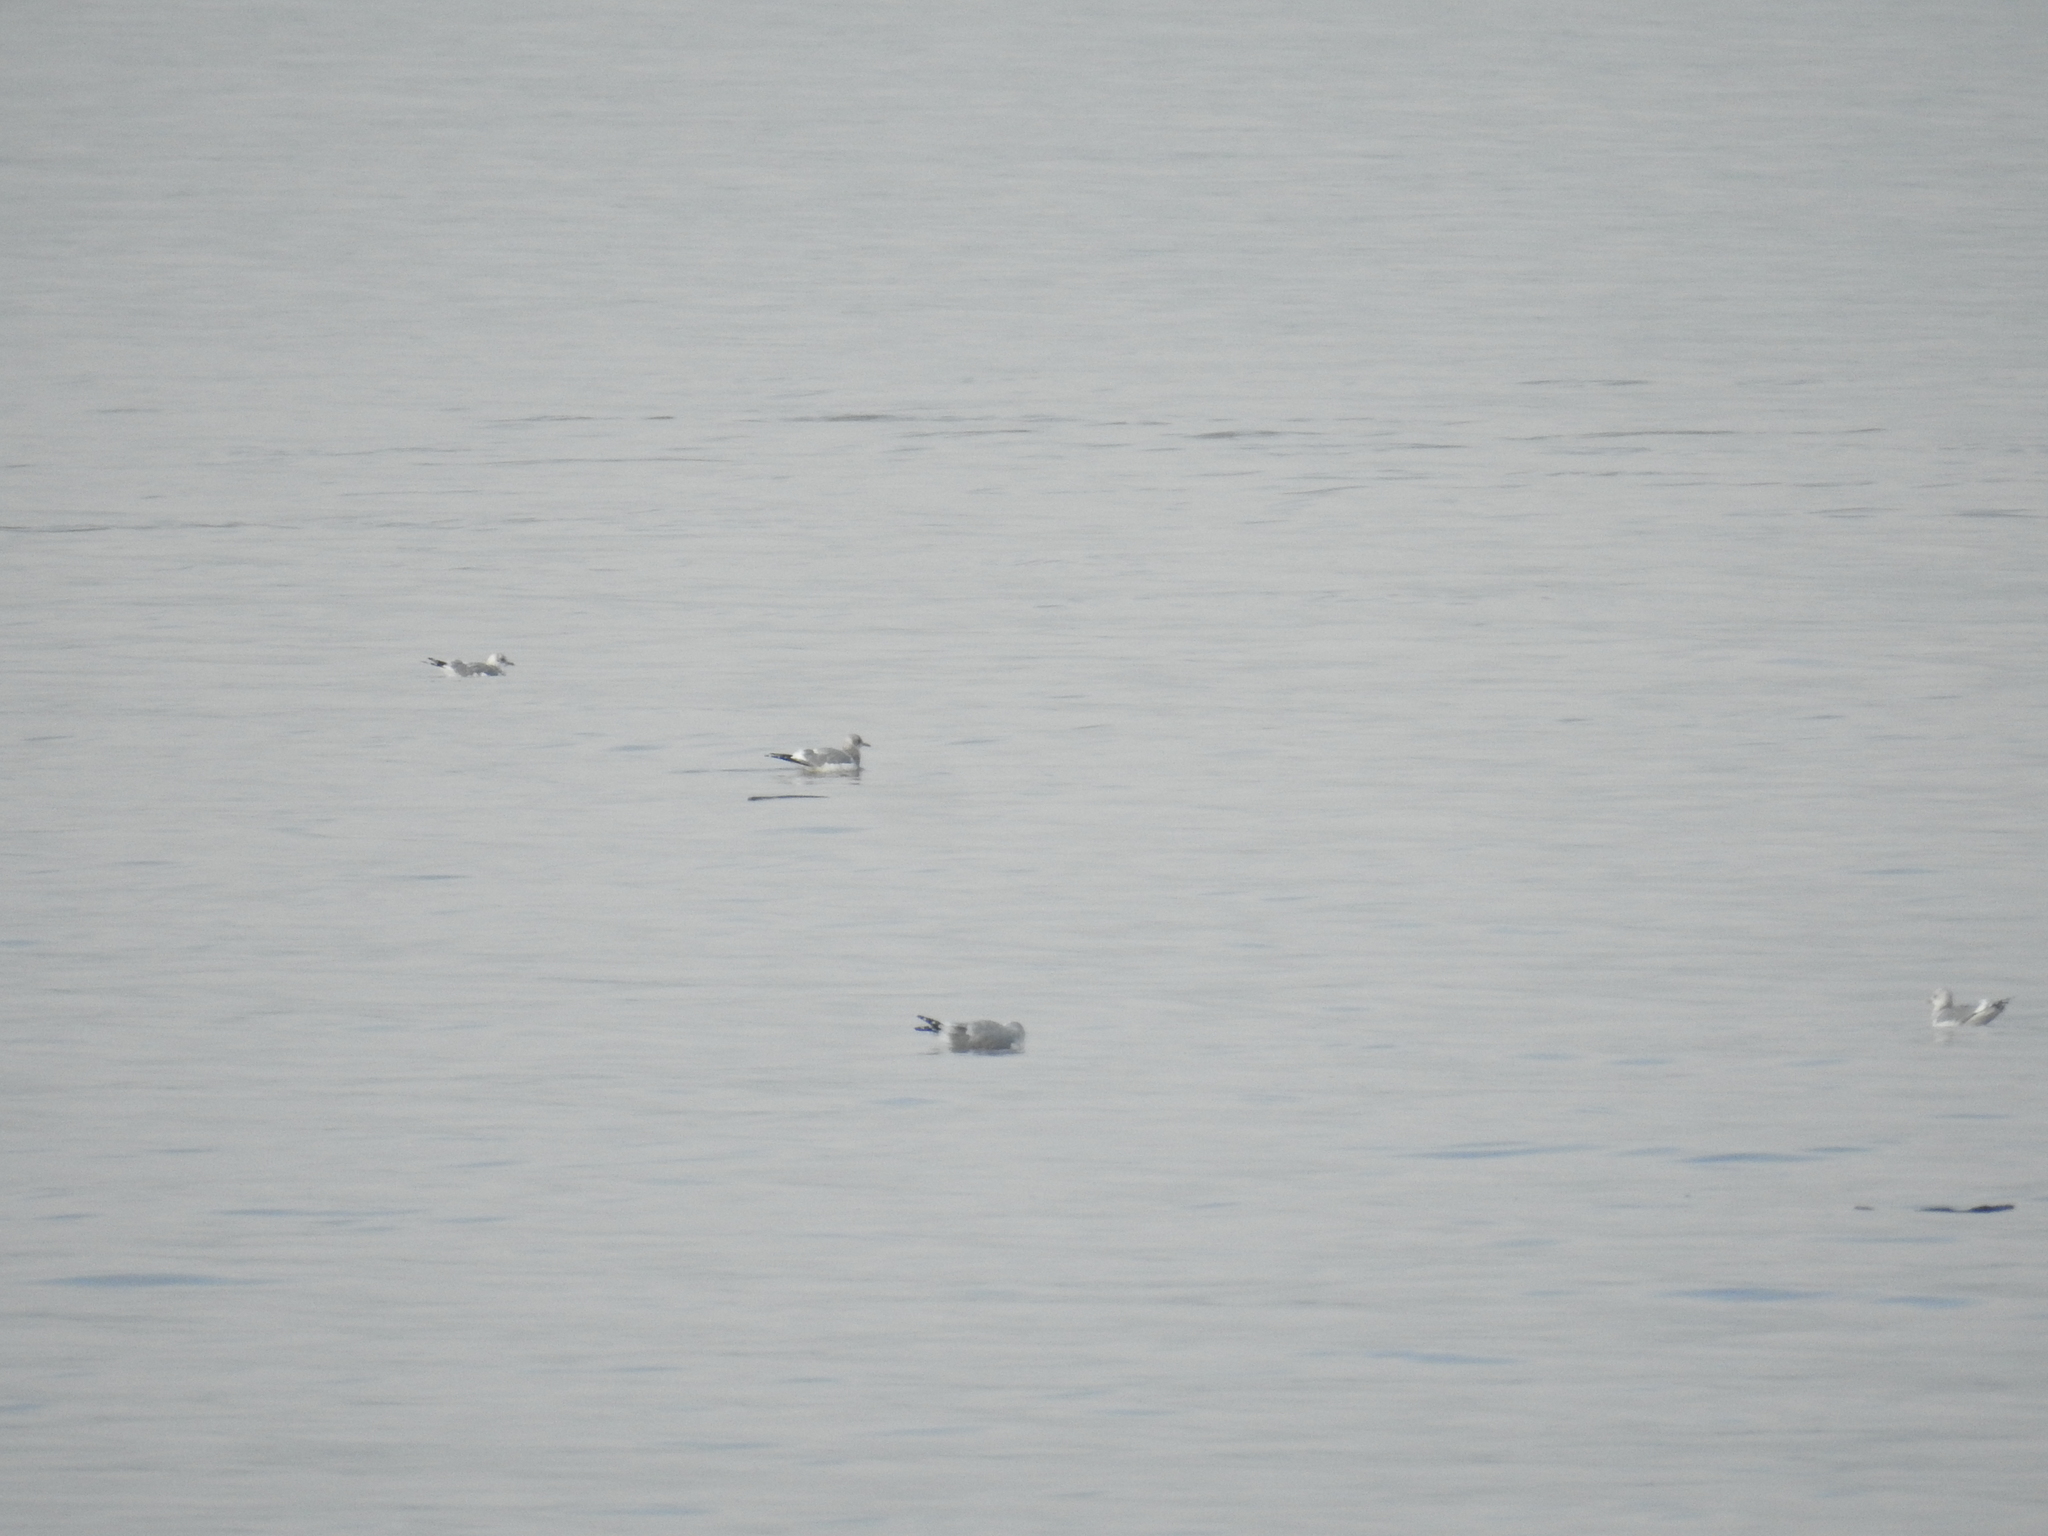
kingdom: Animalia
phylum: Chordata
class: Aves
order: Charadriiformes
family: Laridae
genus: Larus
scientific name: Larus brachyrhynchus
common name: Short-billed gull
